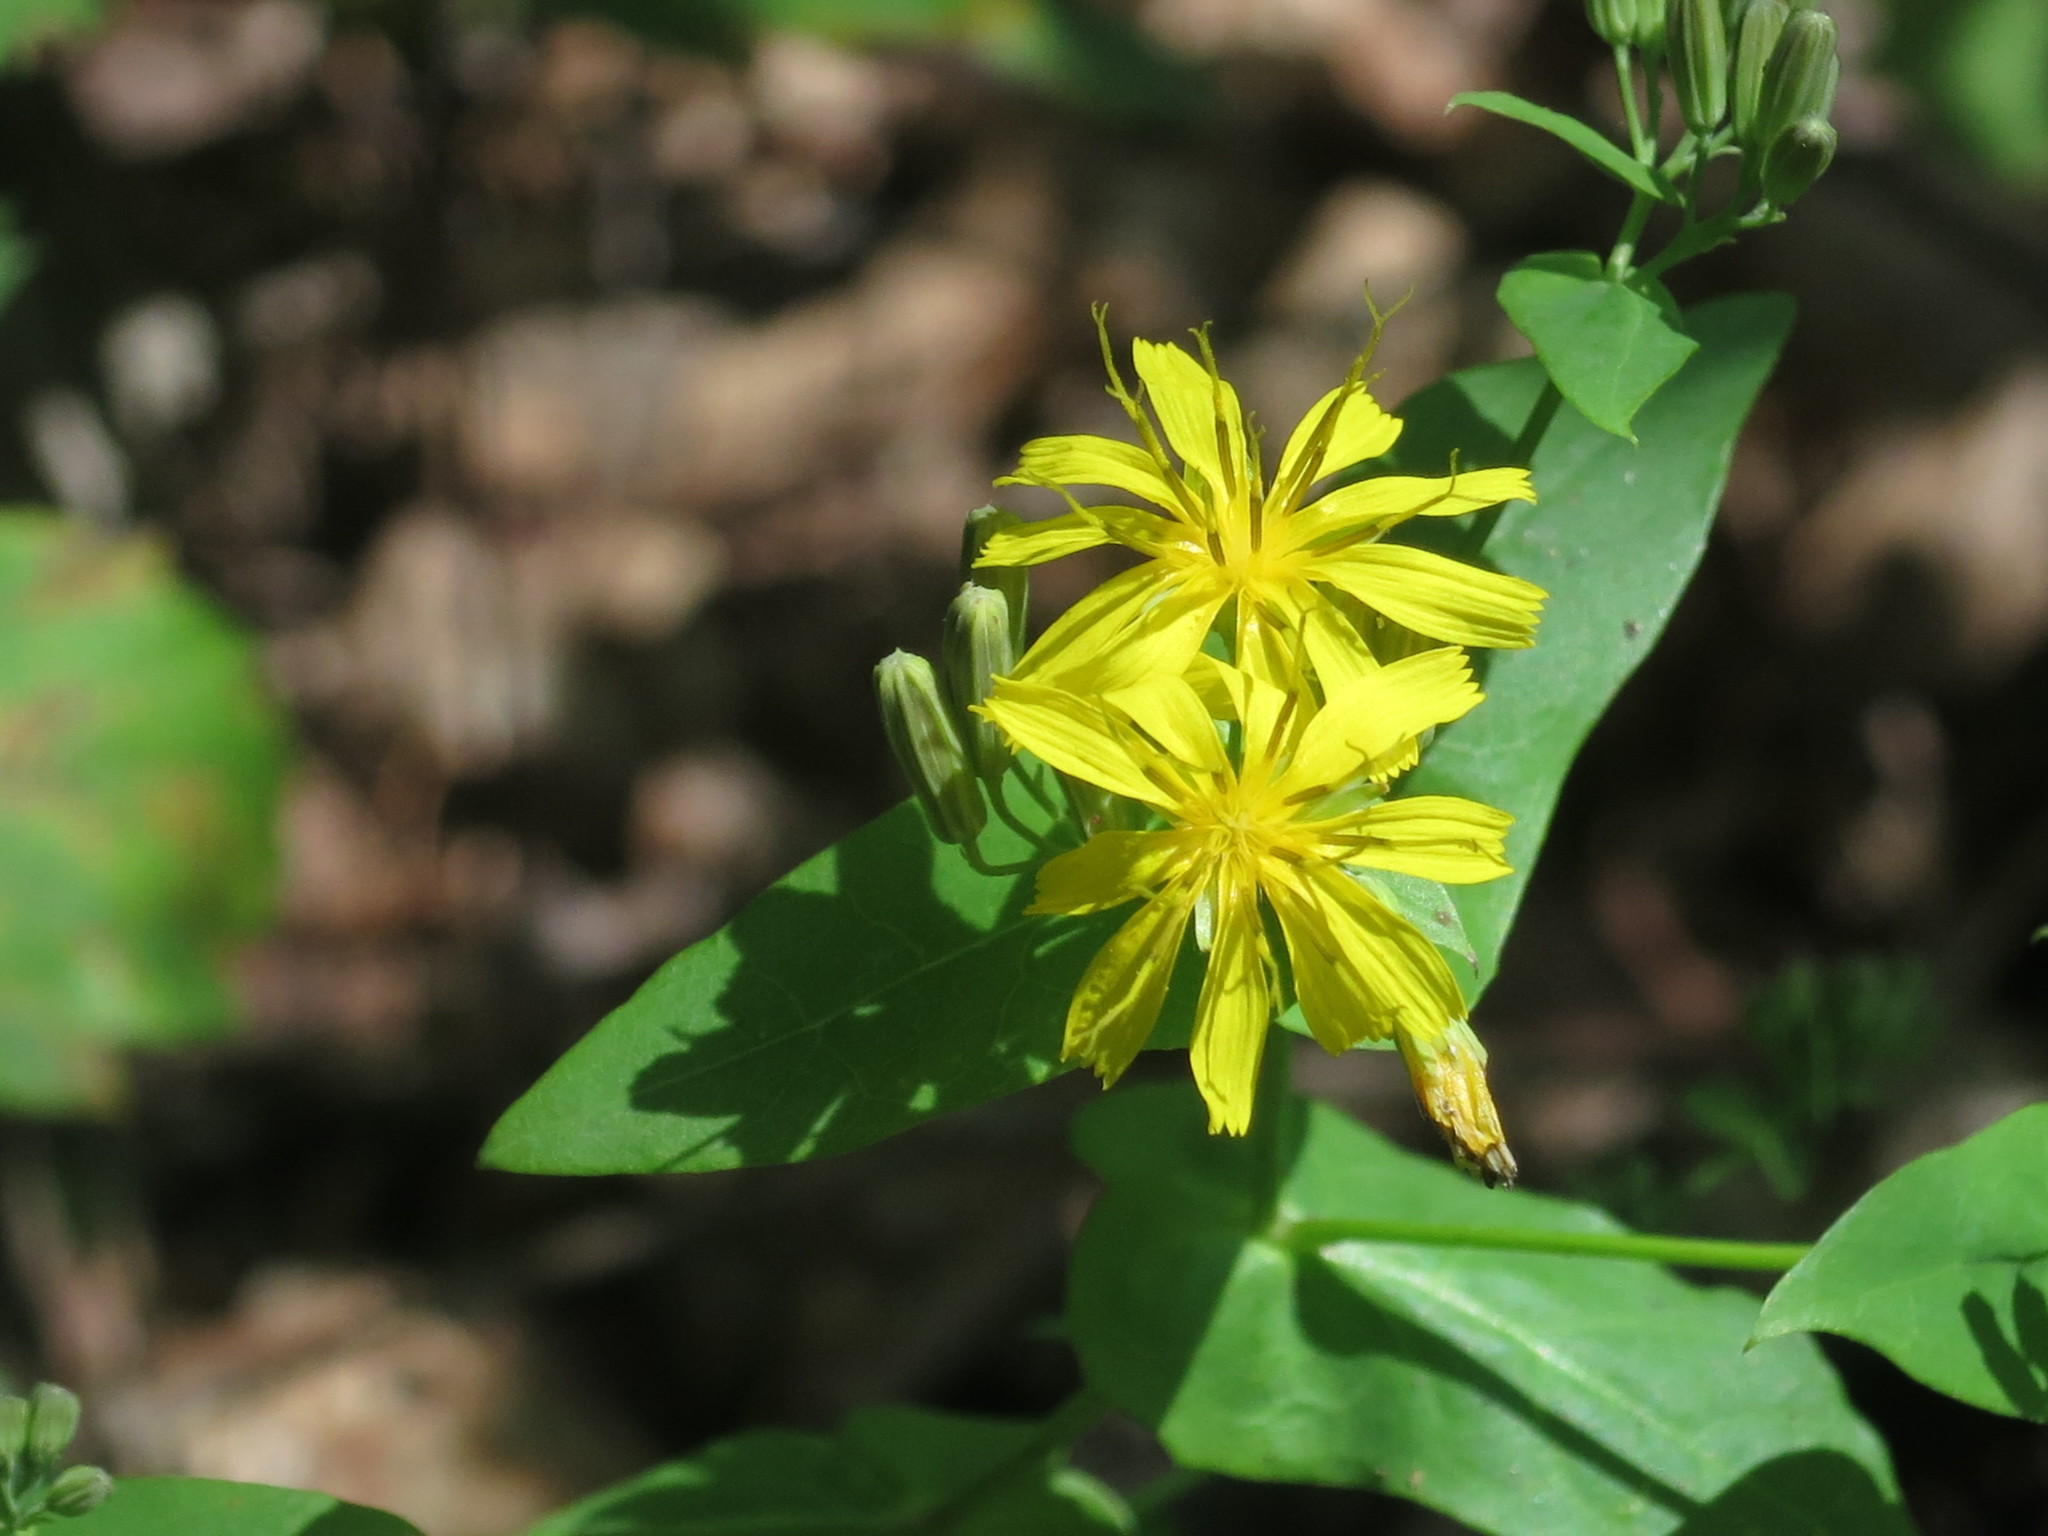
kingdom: Plantae
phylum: Tracheophyta
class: Magnoliopsida
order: Asterales
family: Asteraceae
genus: Crepidiastrum
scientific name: Crepidiastrum denticulatum
